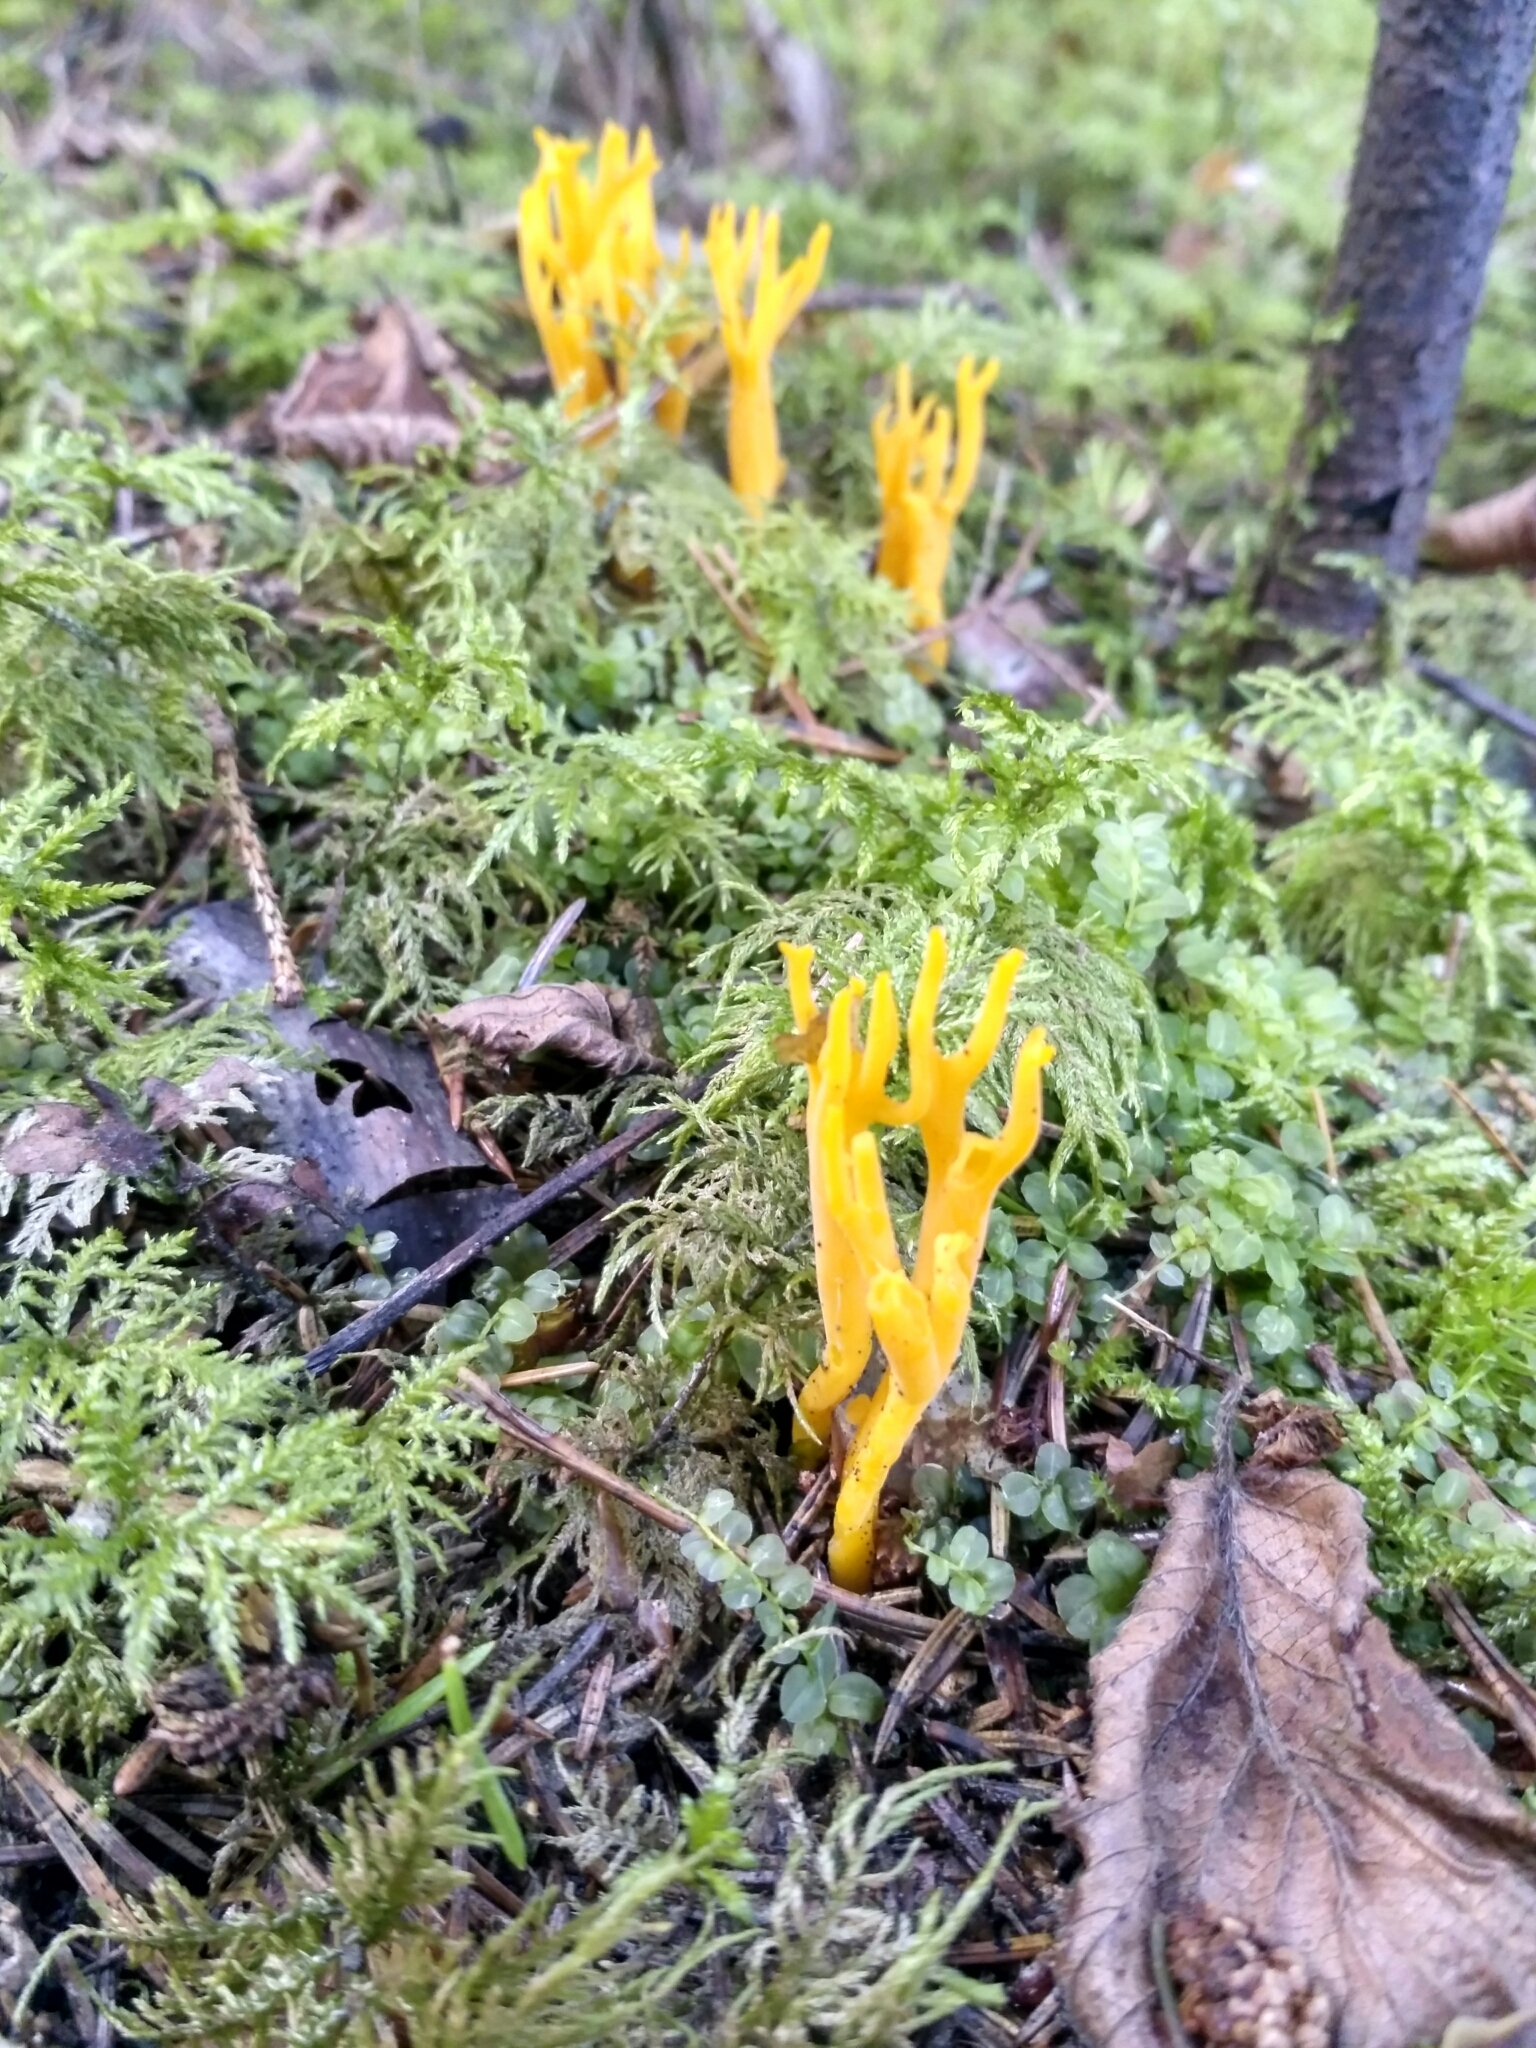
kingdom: Fungi
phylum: Basidiomycota
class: Dacrymycetes
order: Dacrymycetales
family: Dacrymycetaceae
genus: Calocera
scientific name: Calocera viscosa
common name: Yellow stagshorn
